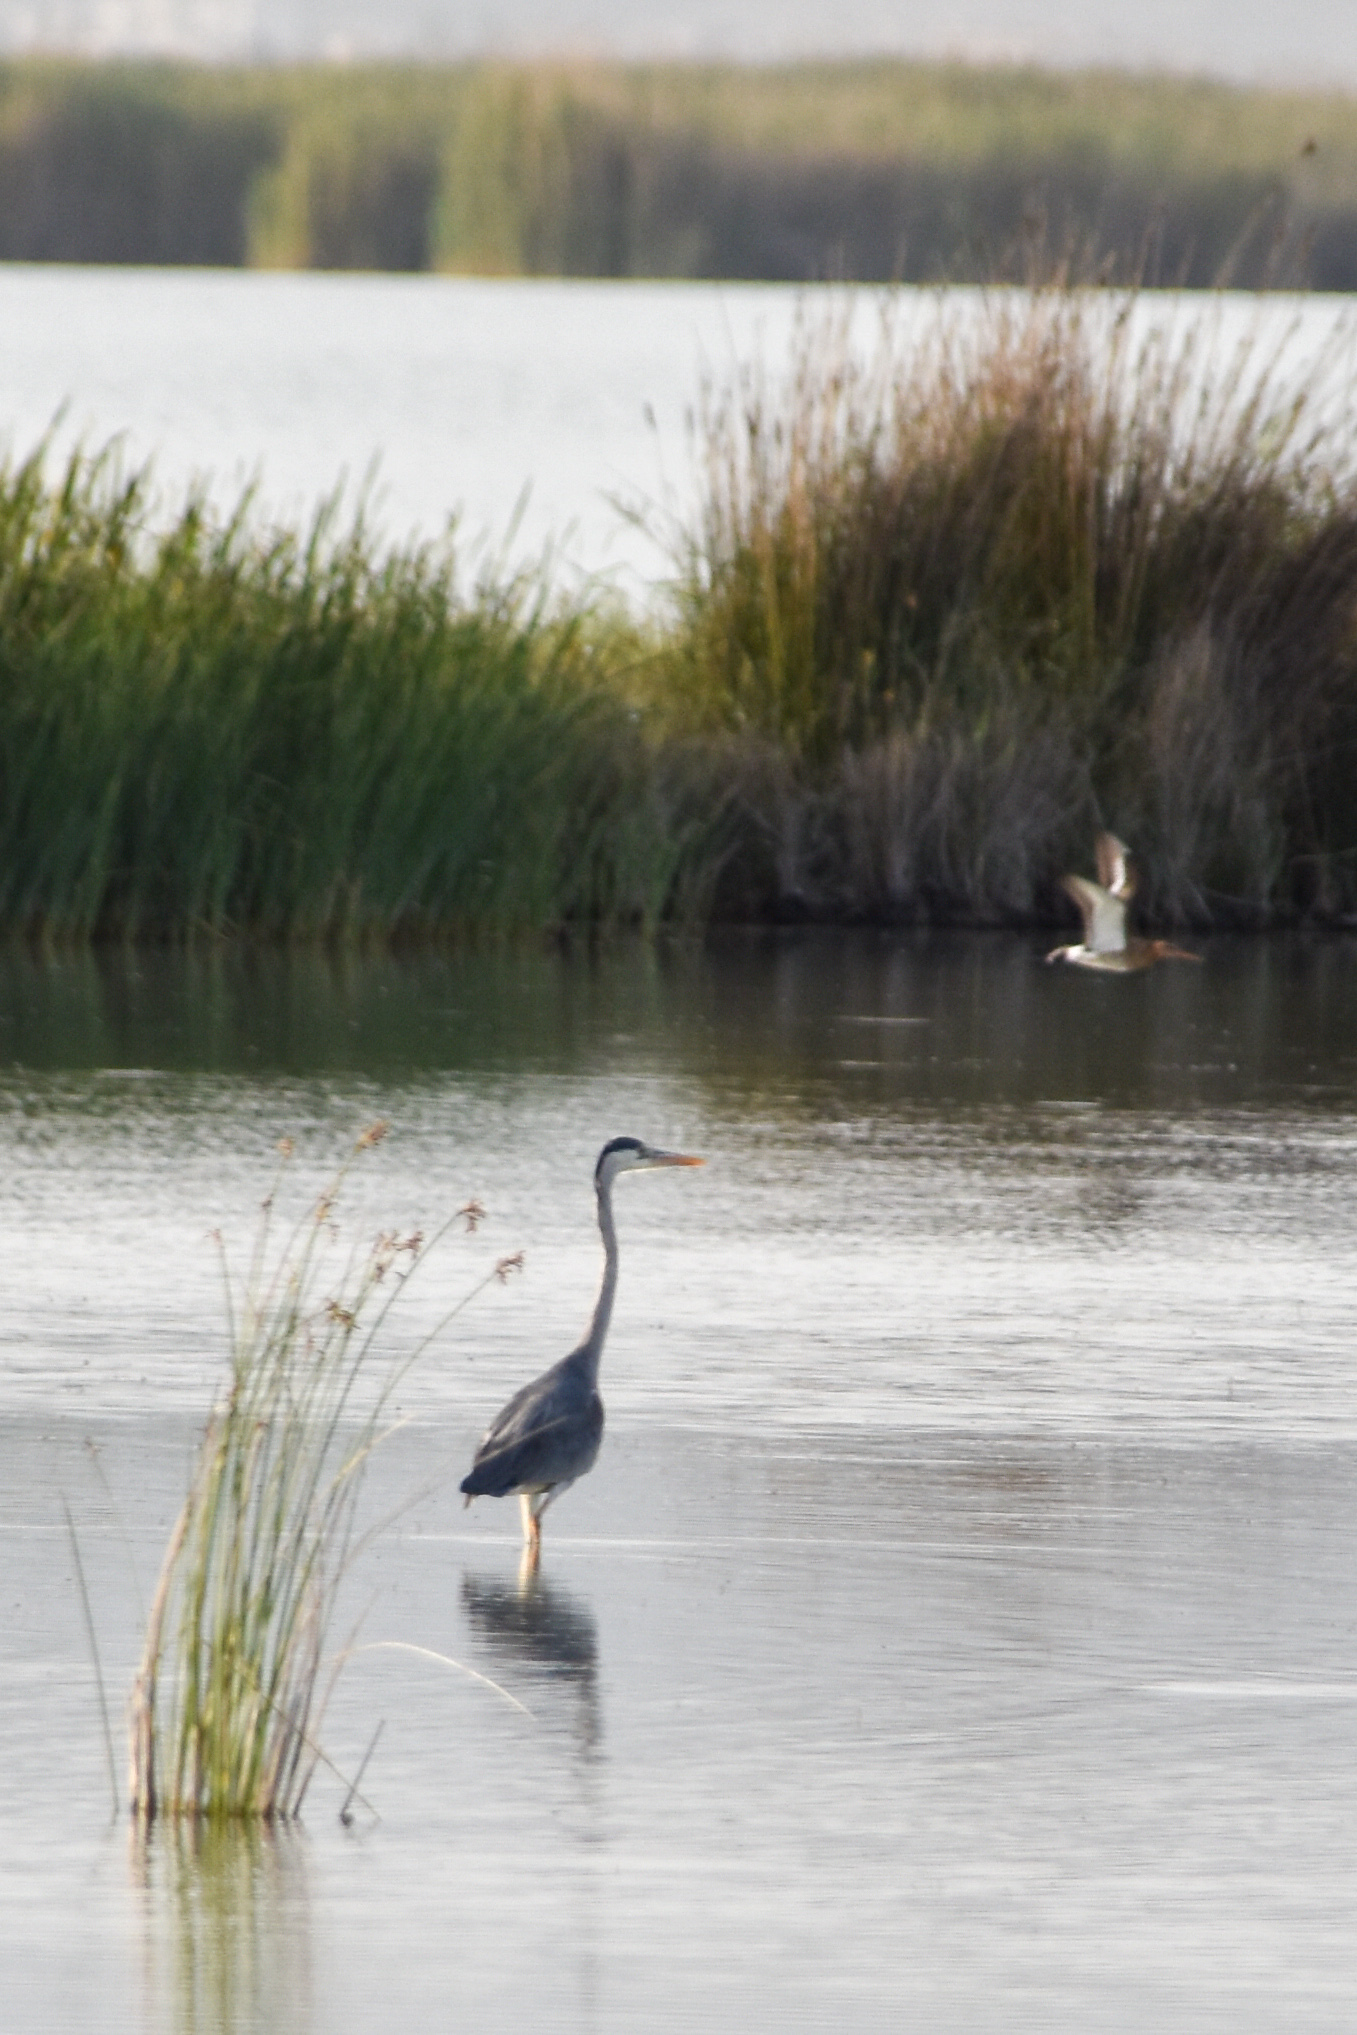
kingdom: Animalia
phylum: Chordata
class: Aves
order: Pelecaniformes
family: Ardeidae
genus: Ardea
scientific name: Ardea cinerea
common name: Grey heron
